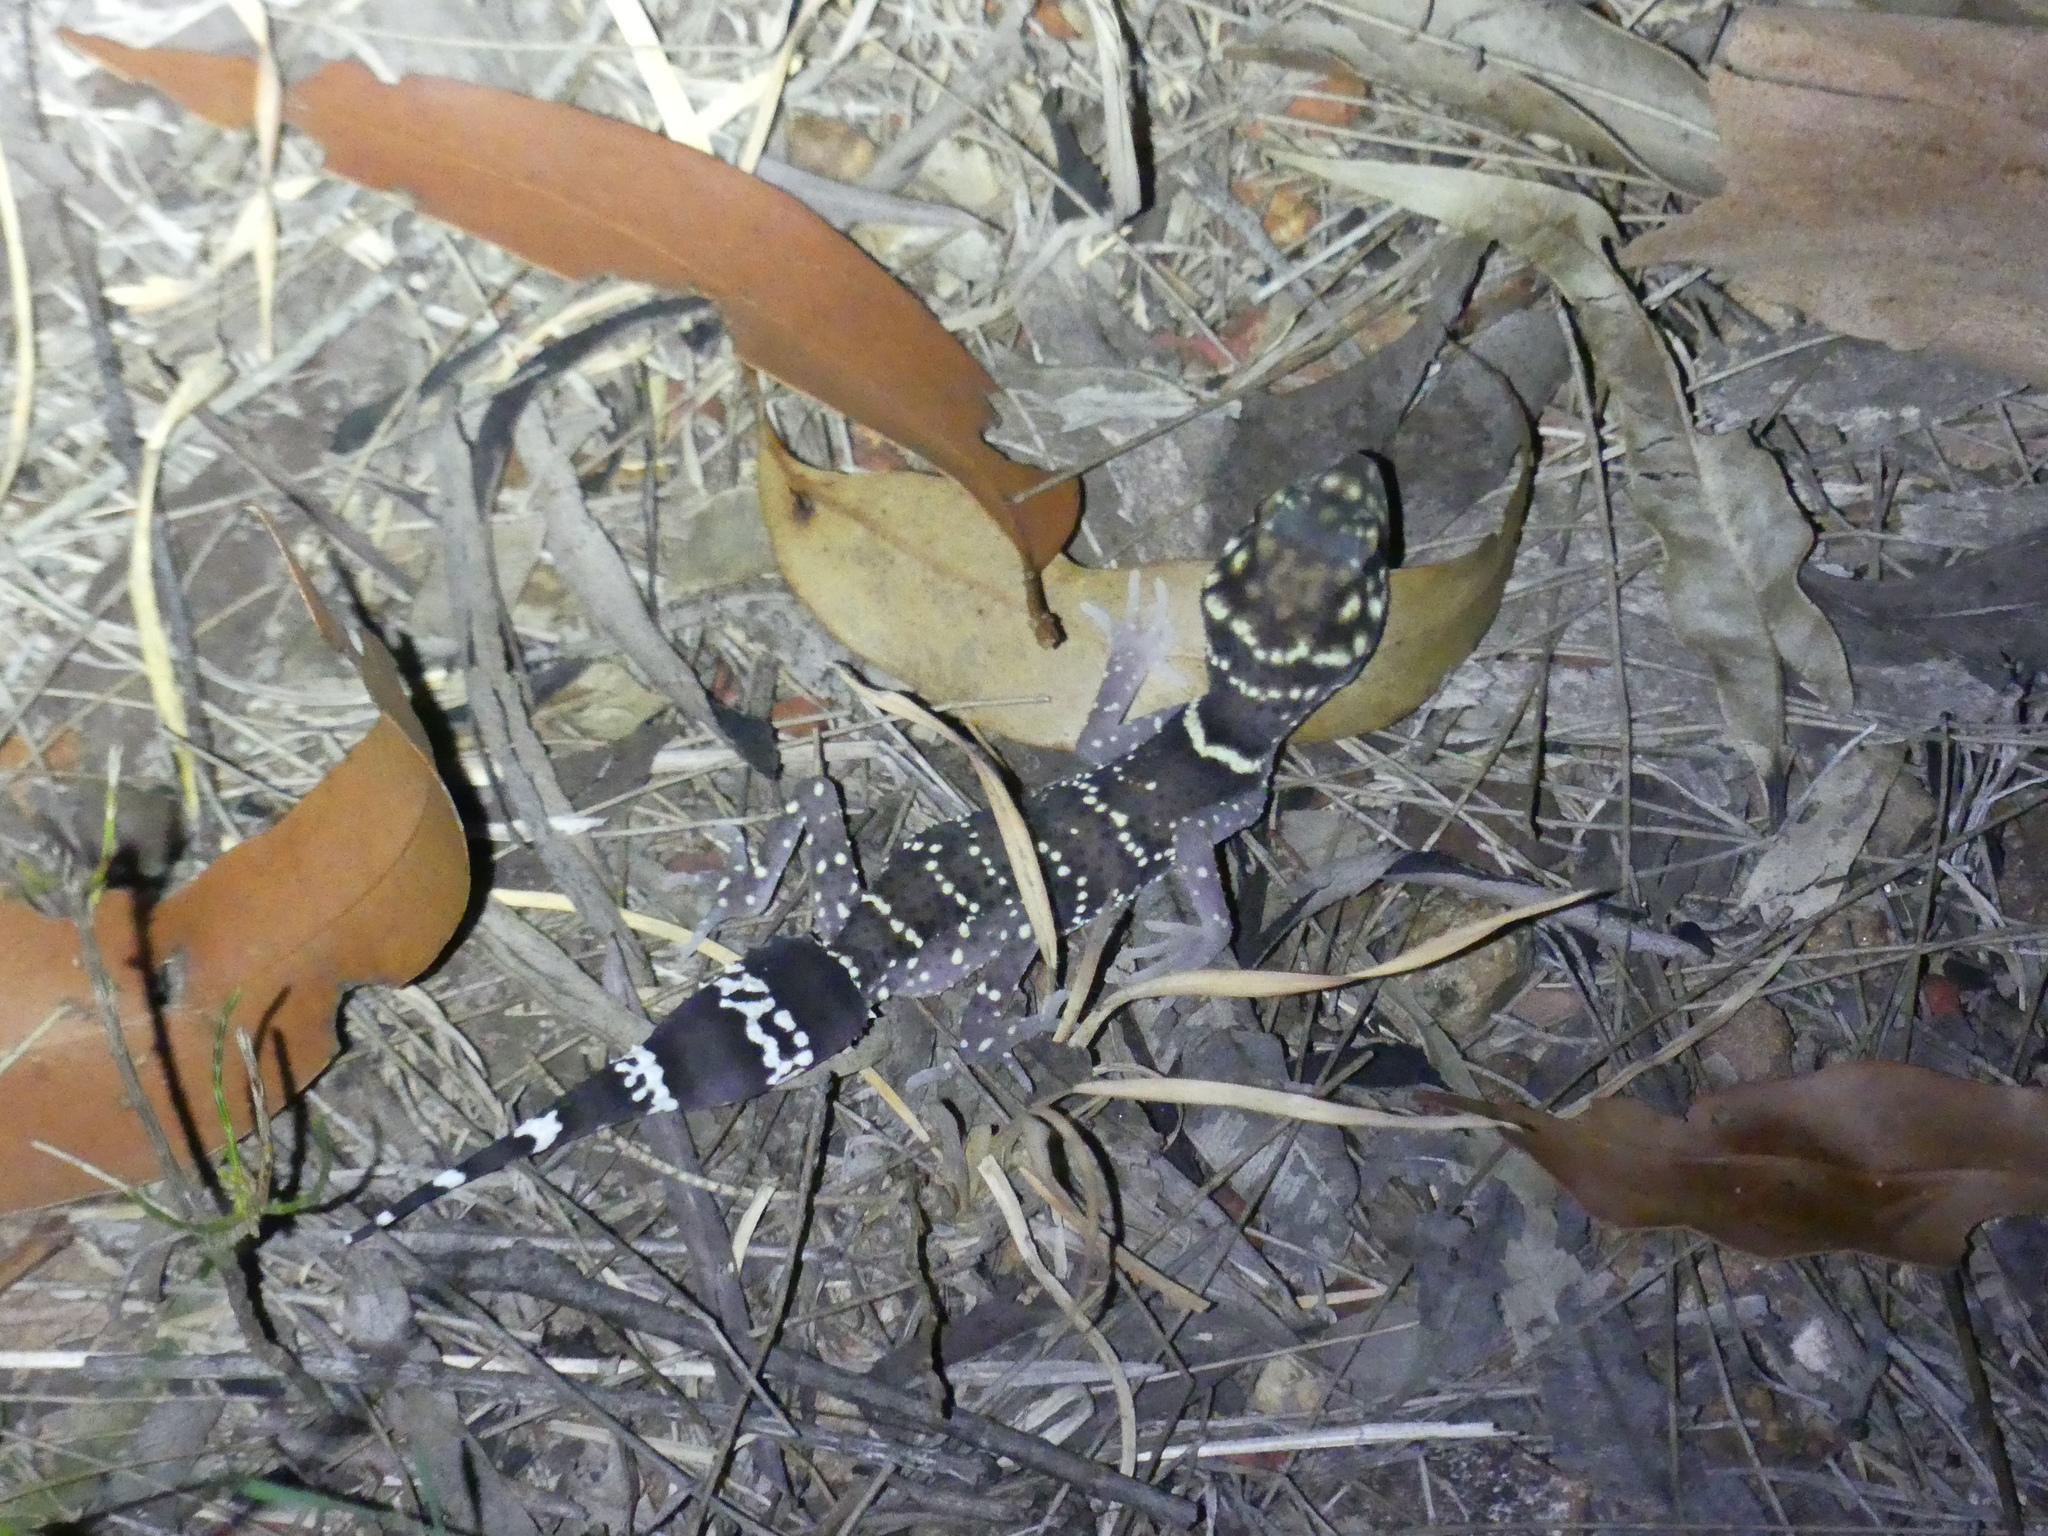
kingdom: Animalia
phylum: Chordata
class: Squamata
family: Carphodactylidae
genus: Underwoodisaurus
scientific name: Underwoodisaurus milii
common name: Barking gecko
